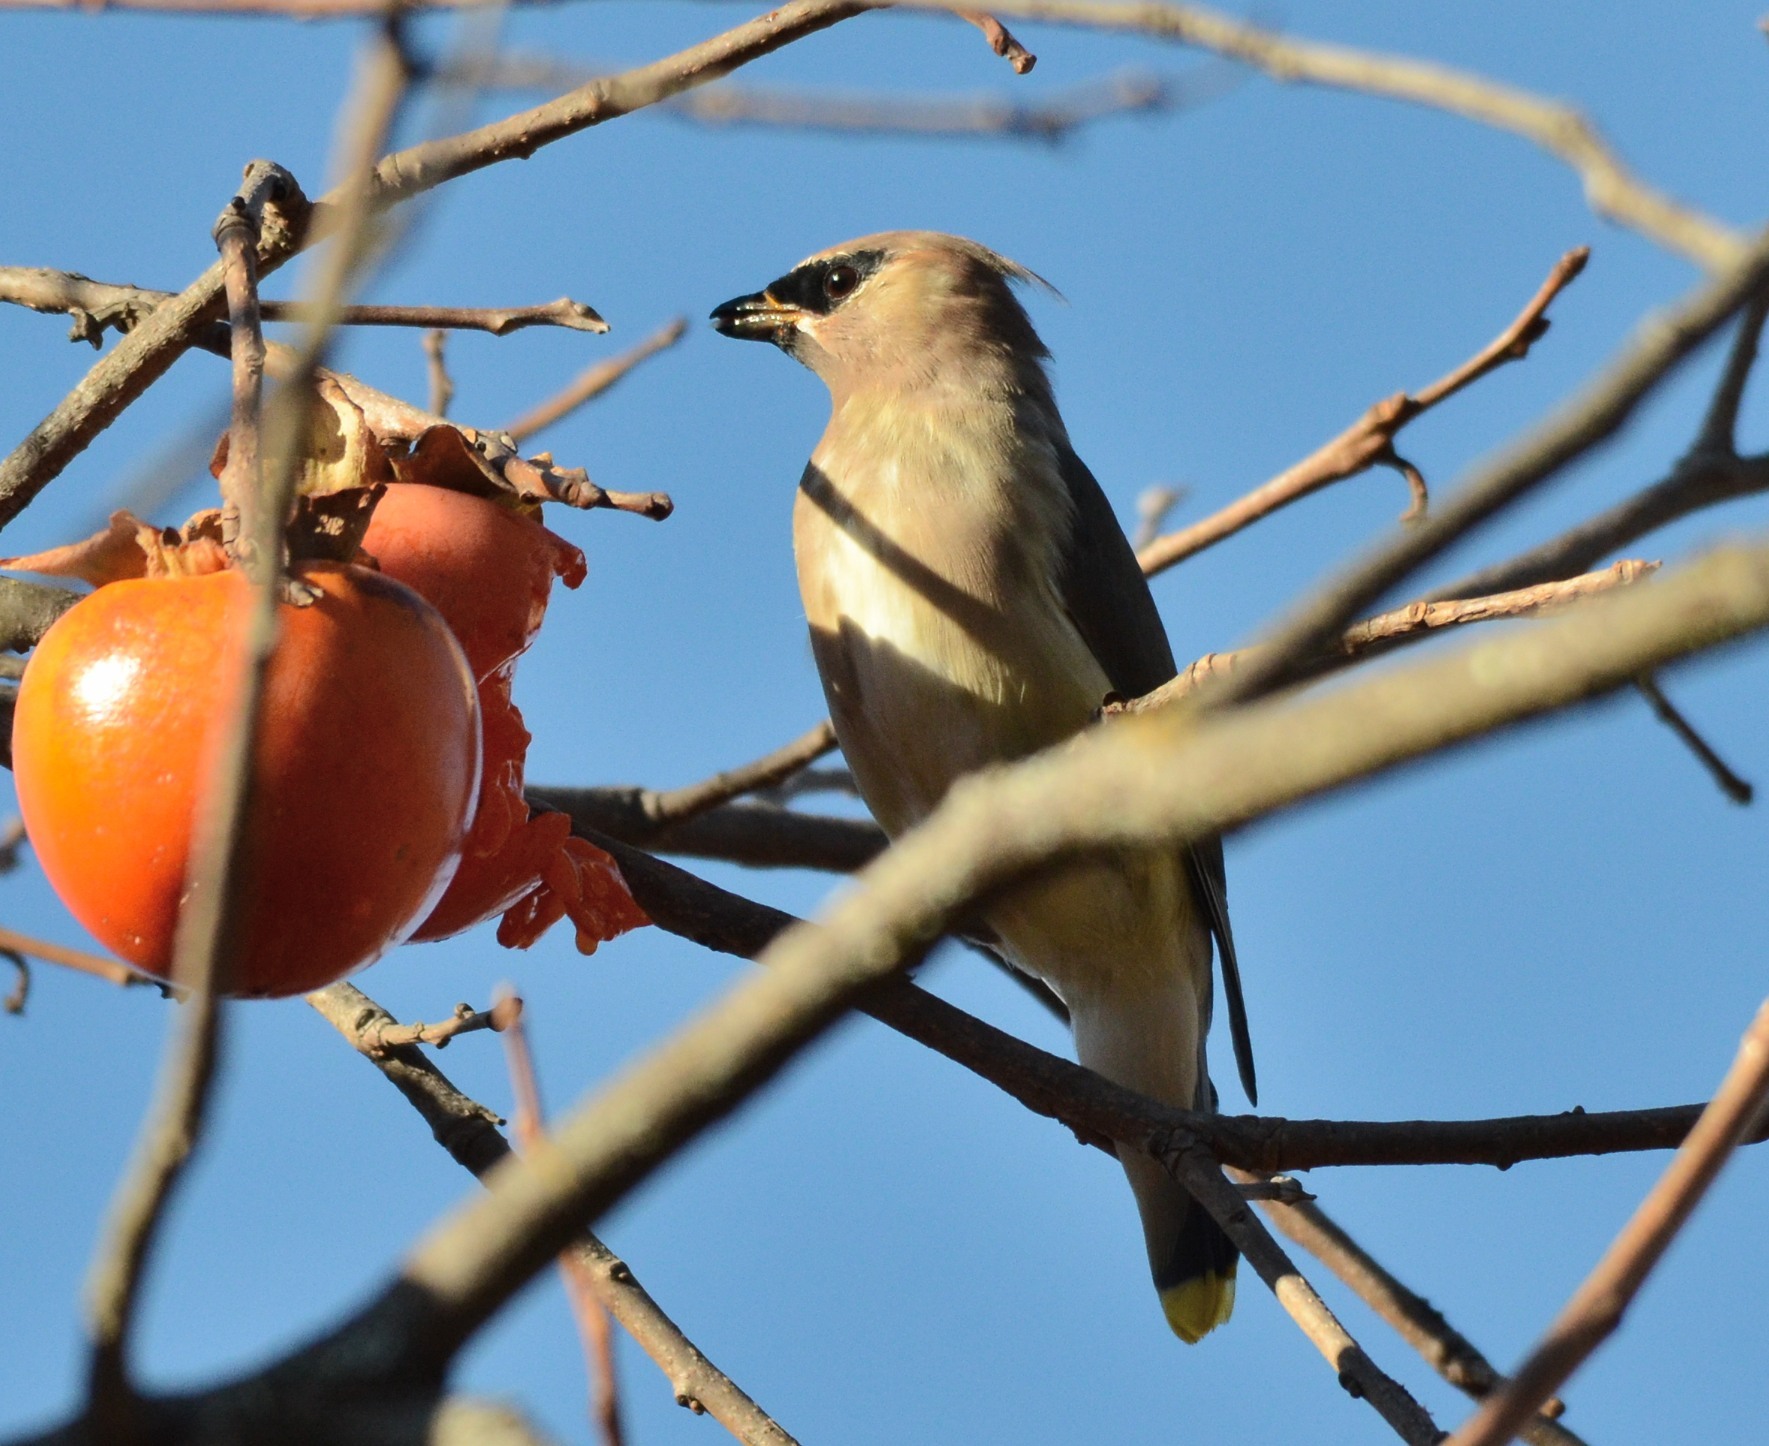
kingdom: Animalia
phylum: Chordata
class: Aves
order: Passeriformes
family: Bombycillidae
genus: Bombycilla
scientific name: Bombycilla cedrorum
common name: Cedar waxwing
